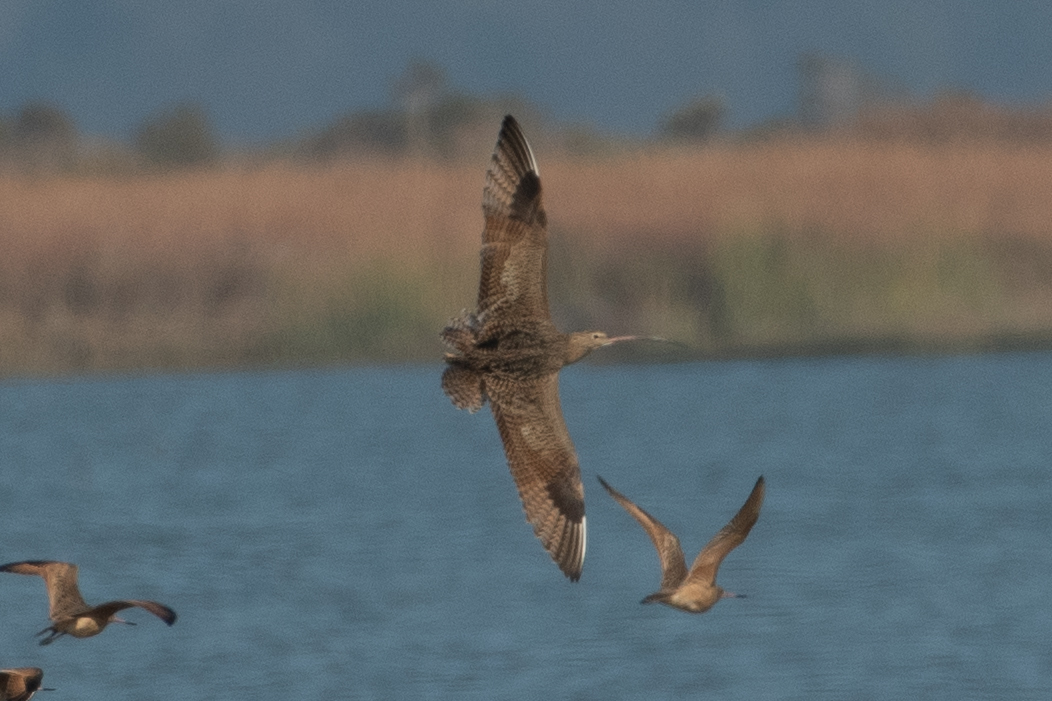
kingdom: Animalia
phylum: Chordata
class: Aves
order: Charadriiformes
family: Scolopacidae
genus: Numenius
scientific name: Numenius americanus
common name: Long-billed curlew
